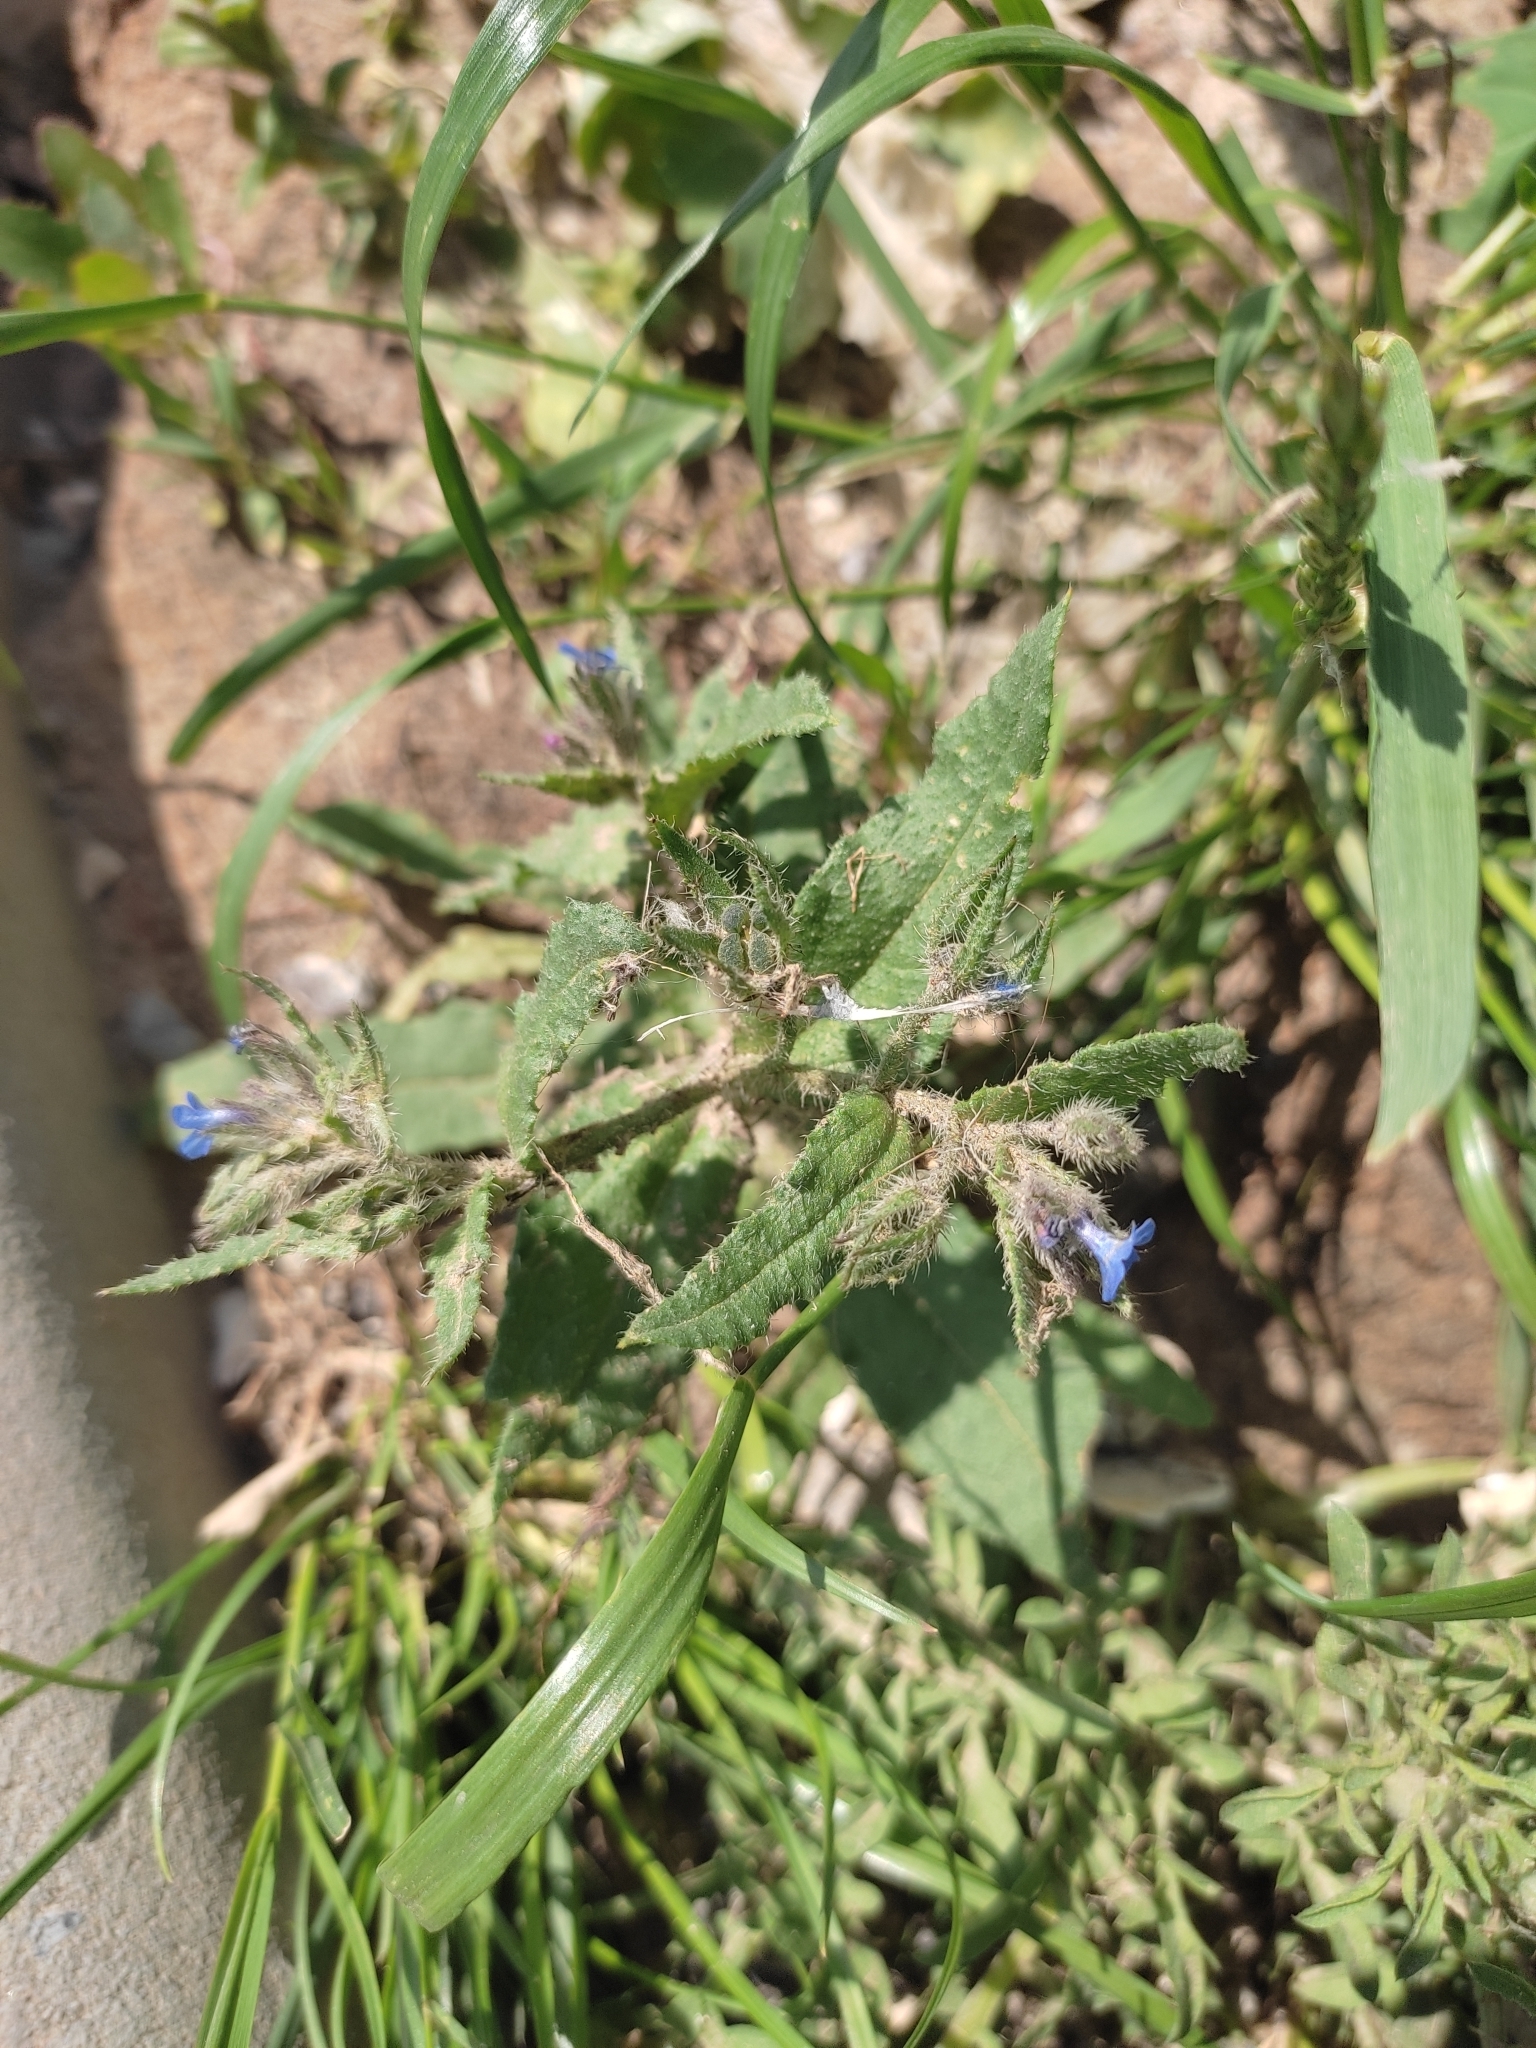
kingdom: Plantae
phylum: Tracheophyta
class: Magnoliopsida
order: Boraginales
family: Boraginaceae
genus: Lycopsis
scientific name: Lycopsis arvensis
